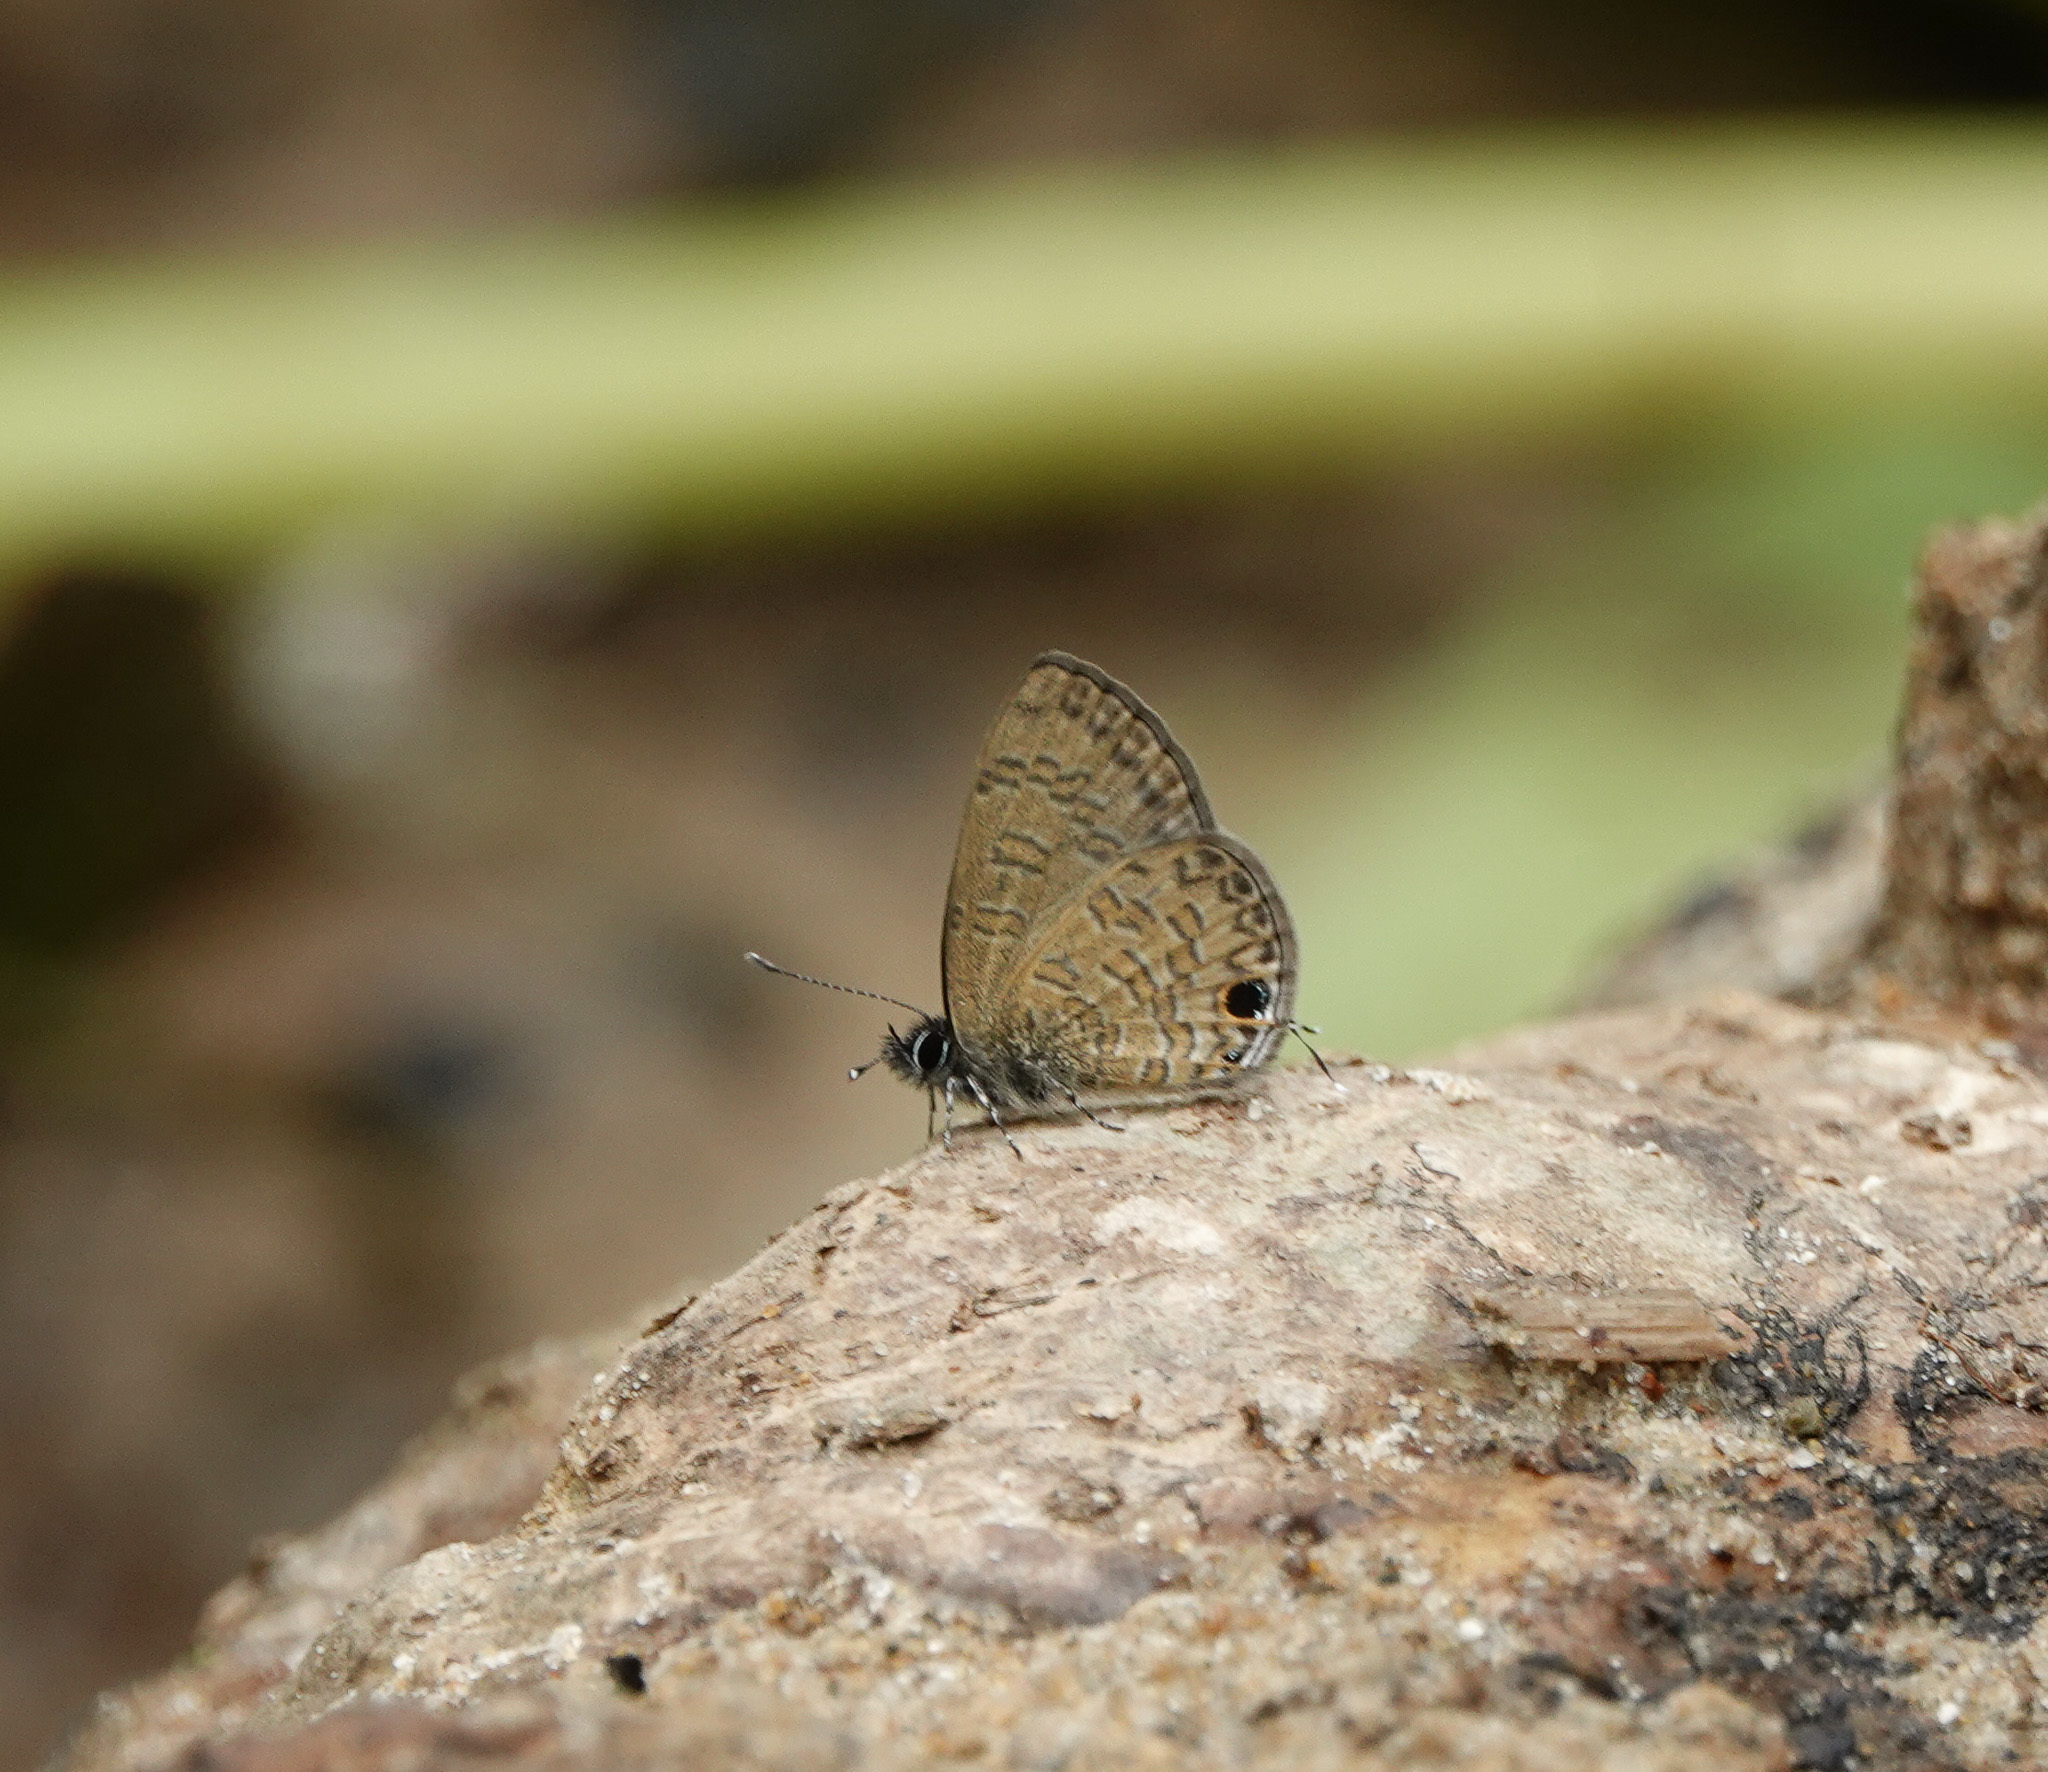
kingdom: Animalia
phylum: Arthropoda
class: Insecta
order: Lepidoptera
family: Lycaenidae
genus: Prosotas
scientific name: Prosotas nora
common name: Common line blue
